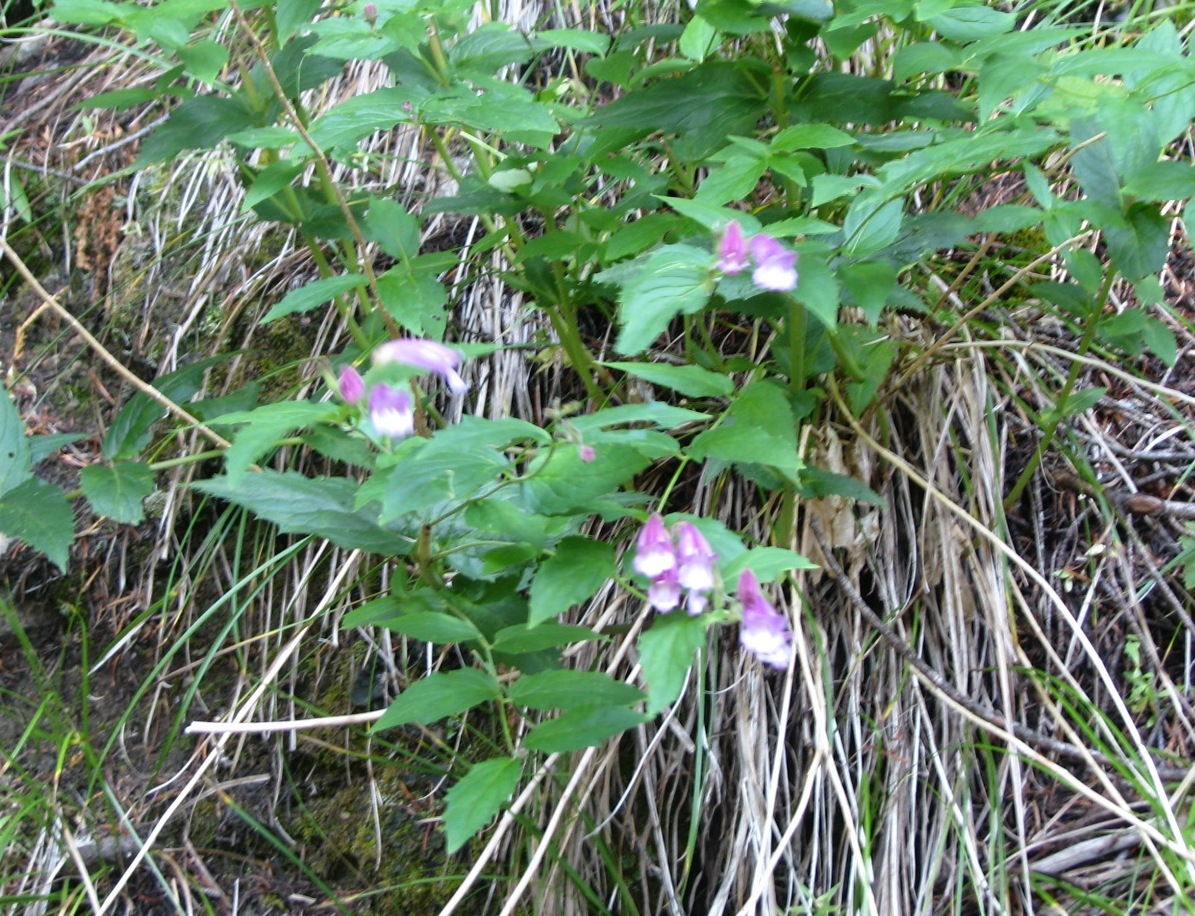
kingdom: Plantae
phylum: Tracheophyta
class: Magnoliopsida
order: Lamiales
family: Plantaginaceae
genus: Nothochelone
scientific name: Nothochelone nemorosa
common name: Woodland beardtongue
